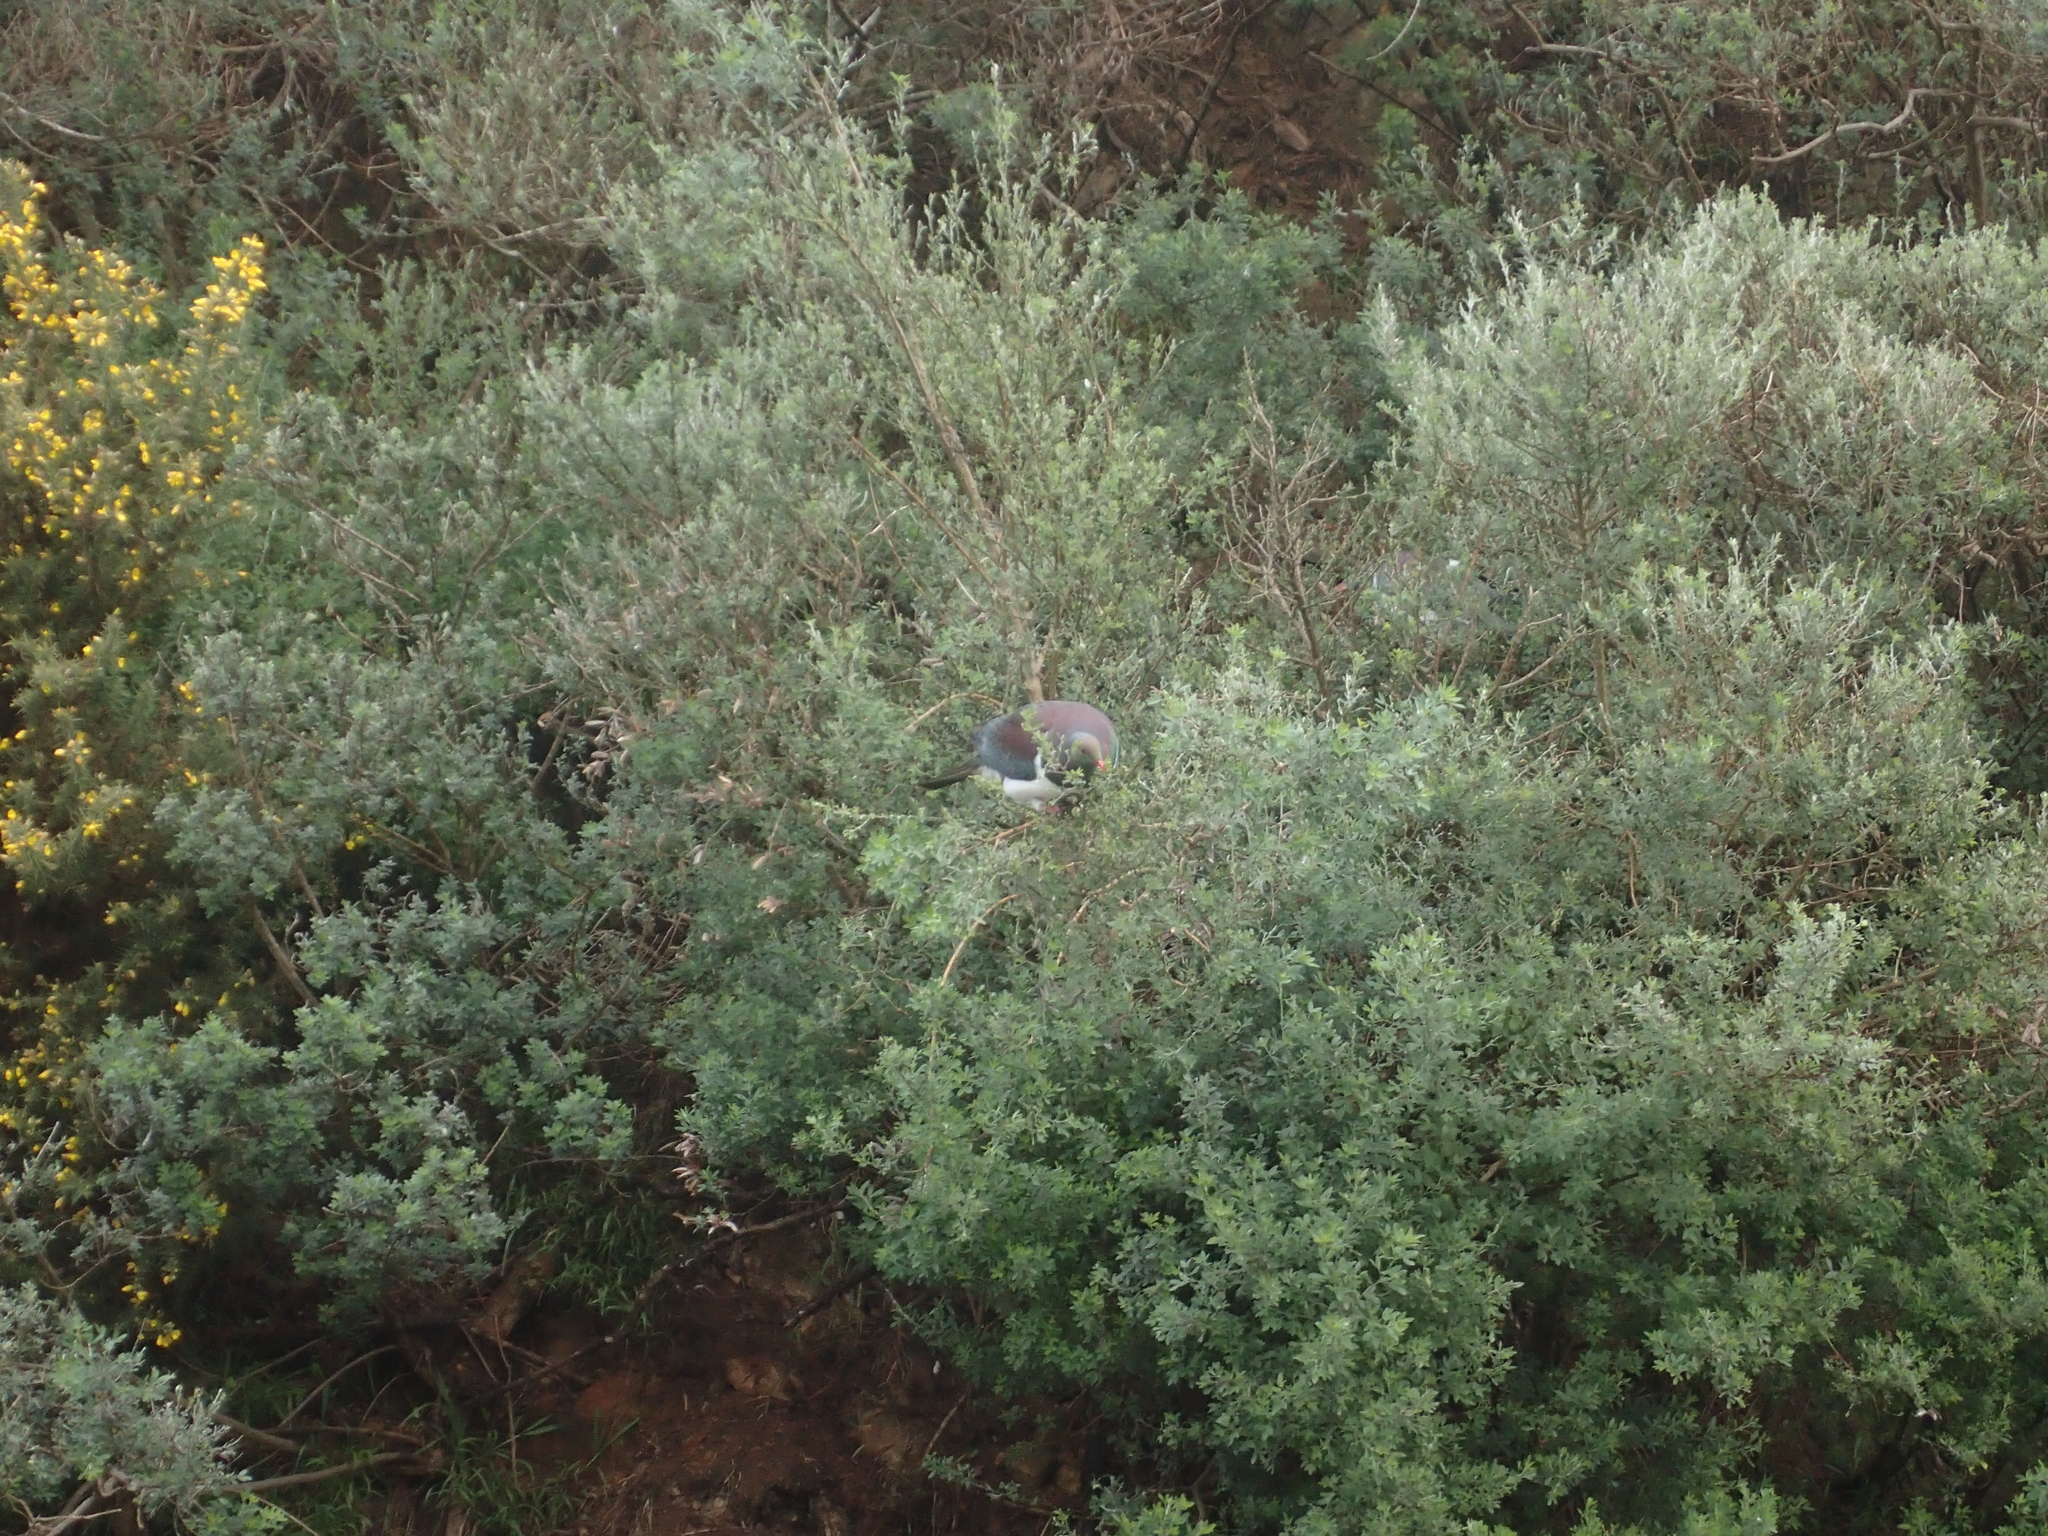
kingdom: Animalia
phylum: Chordata
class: Aves
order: Columbiformes
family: Columbidae
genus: Hemiphaga
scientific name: Hemiphaga novaeseelandiae
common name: New zealand pigeon
